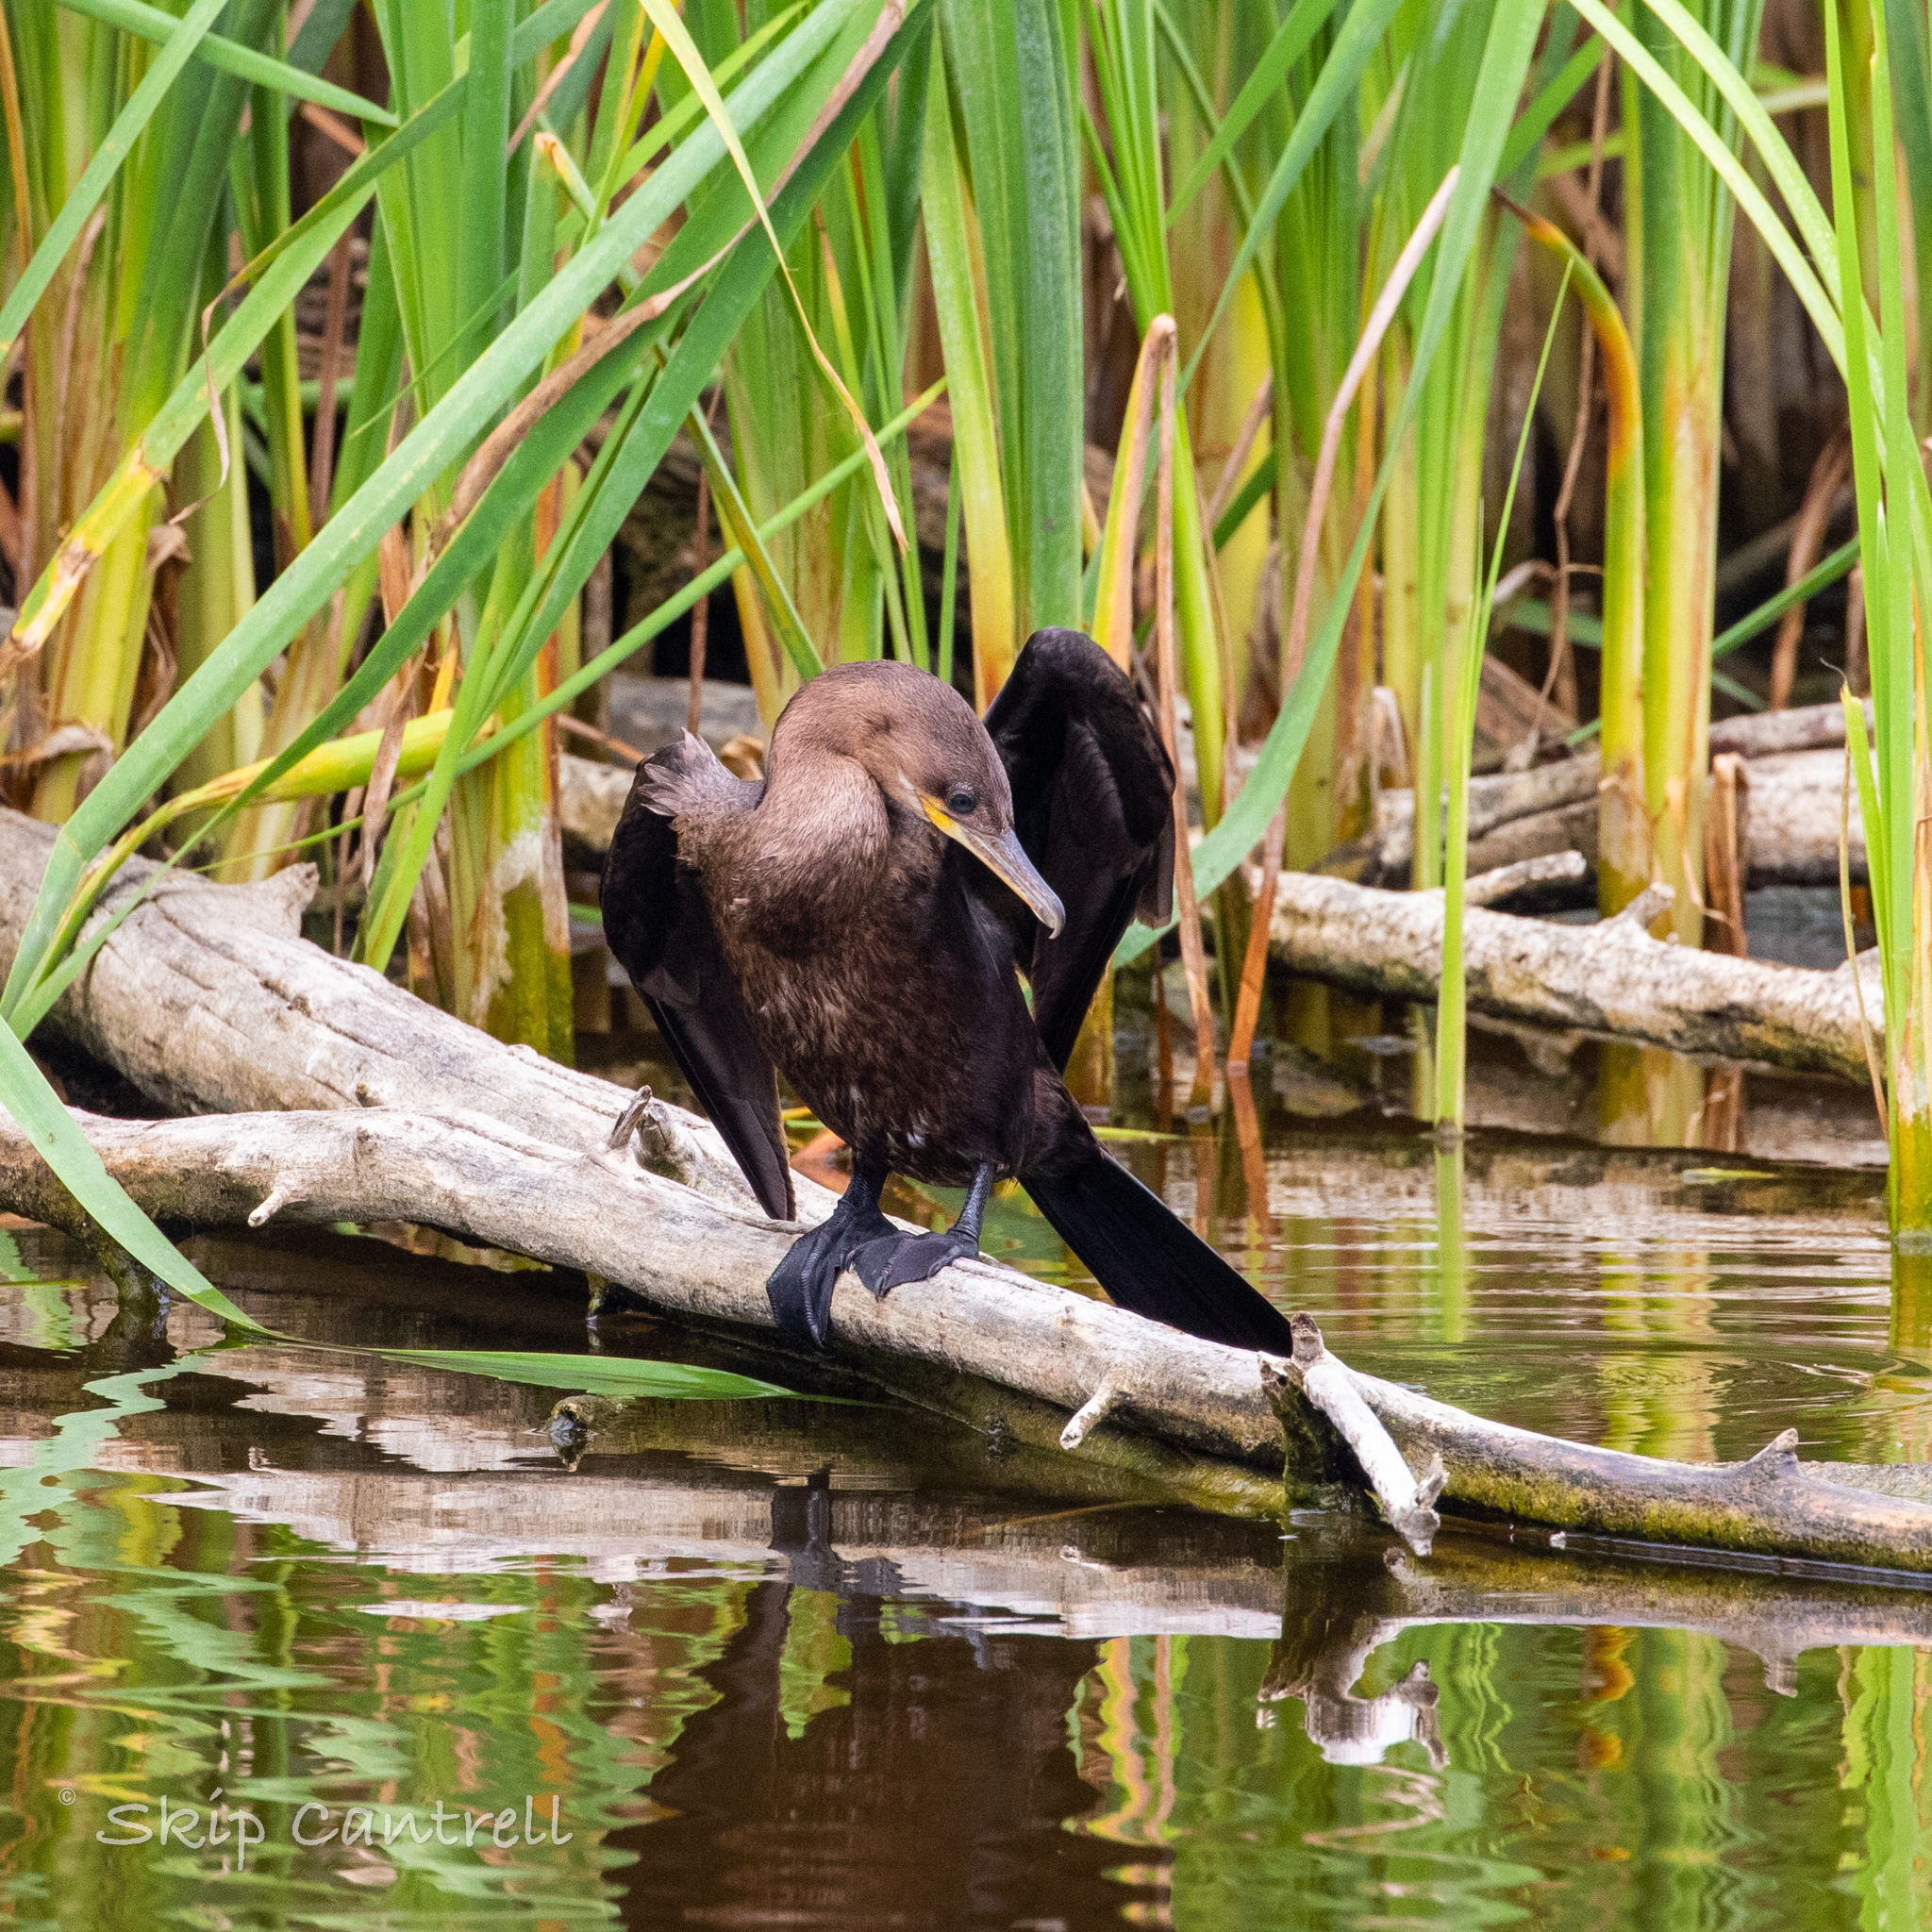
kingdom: Animalia
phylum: Chordata
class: Aves
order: Suliformes
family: Phalacrocoracidae
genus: Phalacrocorax
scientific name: Phalacrocorax brasilianus
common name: Neotropic cormorant
